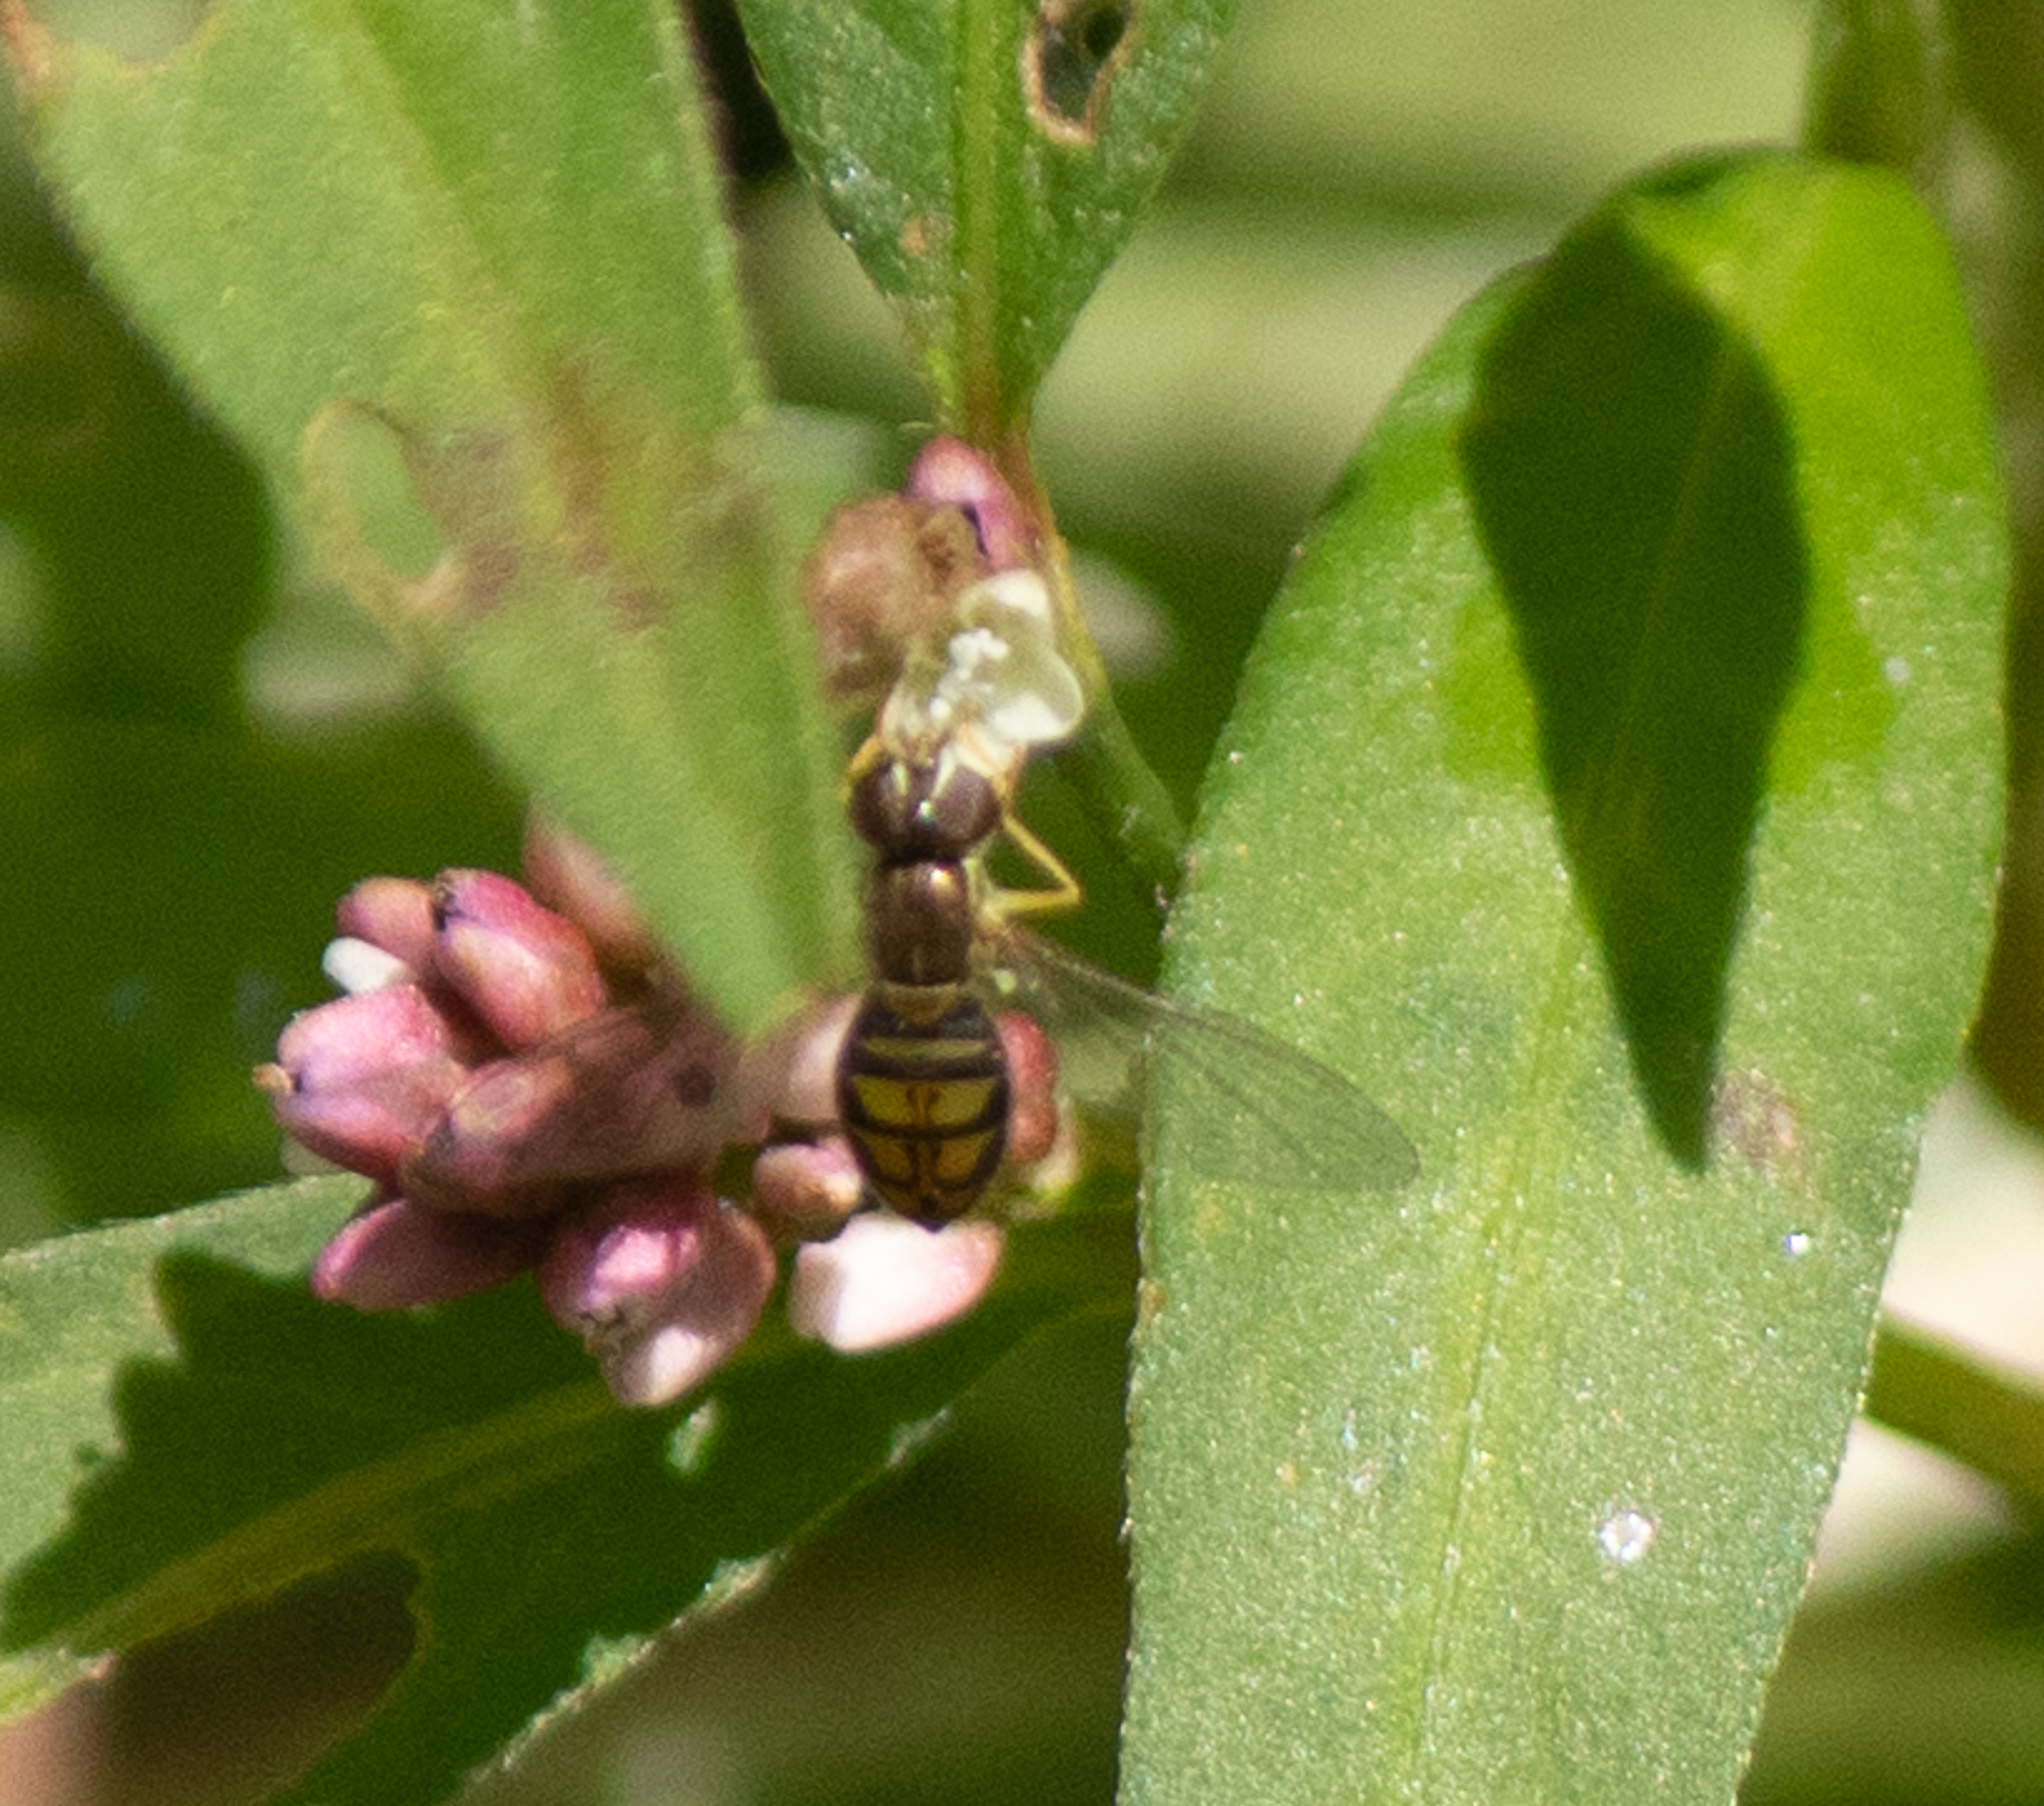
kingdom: Animalia
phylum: Arthropoda
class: Insecta
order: Diptera
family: Syrphidae
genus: Toxomerus
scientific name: Toxomerus marginatus
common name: Syrphid fly
